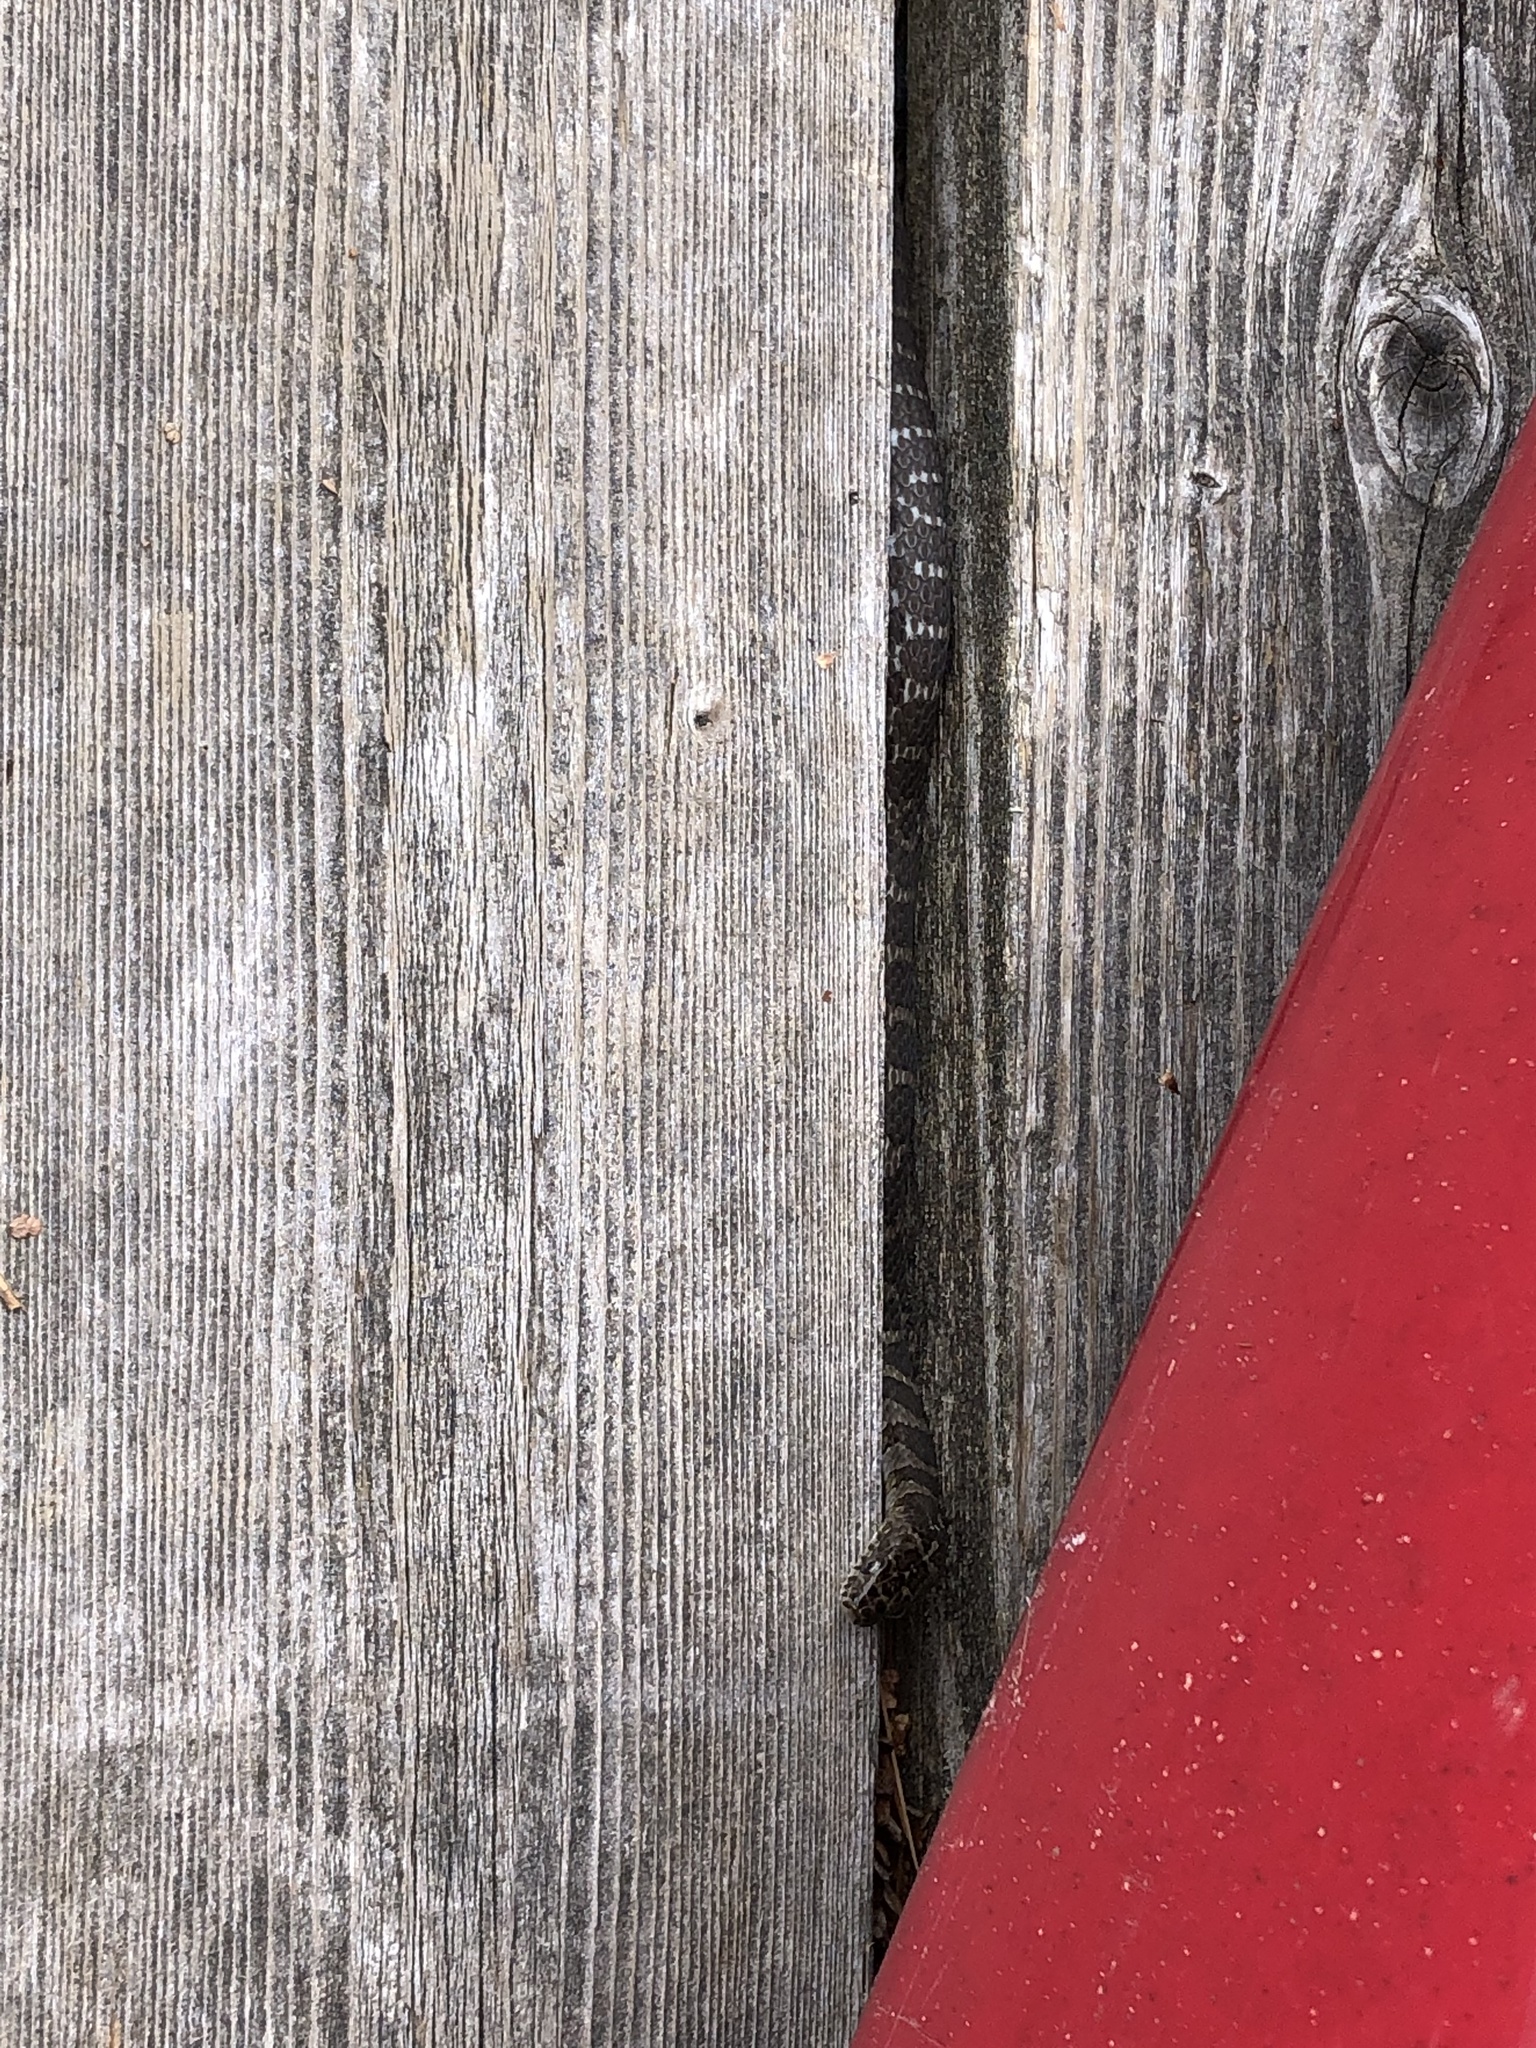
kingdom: Animalia
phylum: Chordata
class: Squamata
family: Colubridae
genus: Nerodia
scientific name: Nerodia sipedon
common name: Northern water snake
